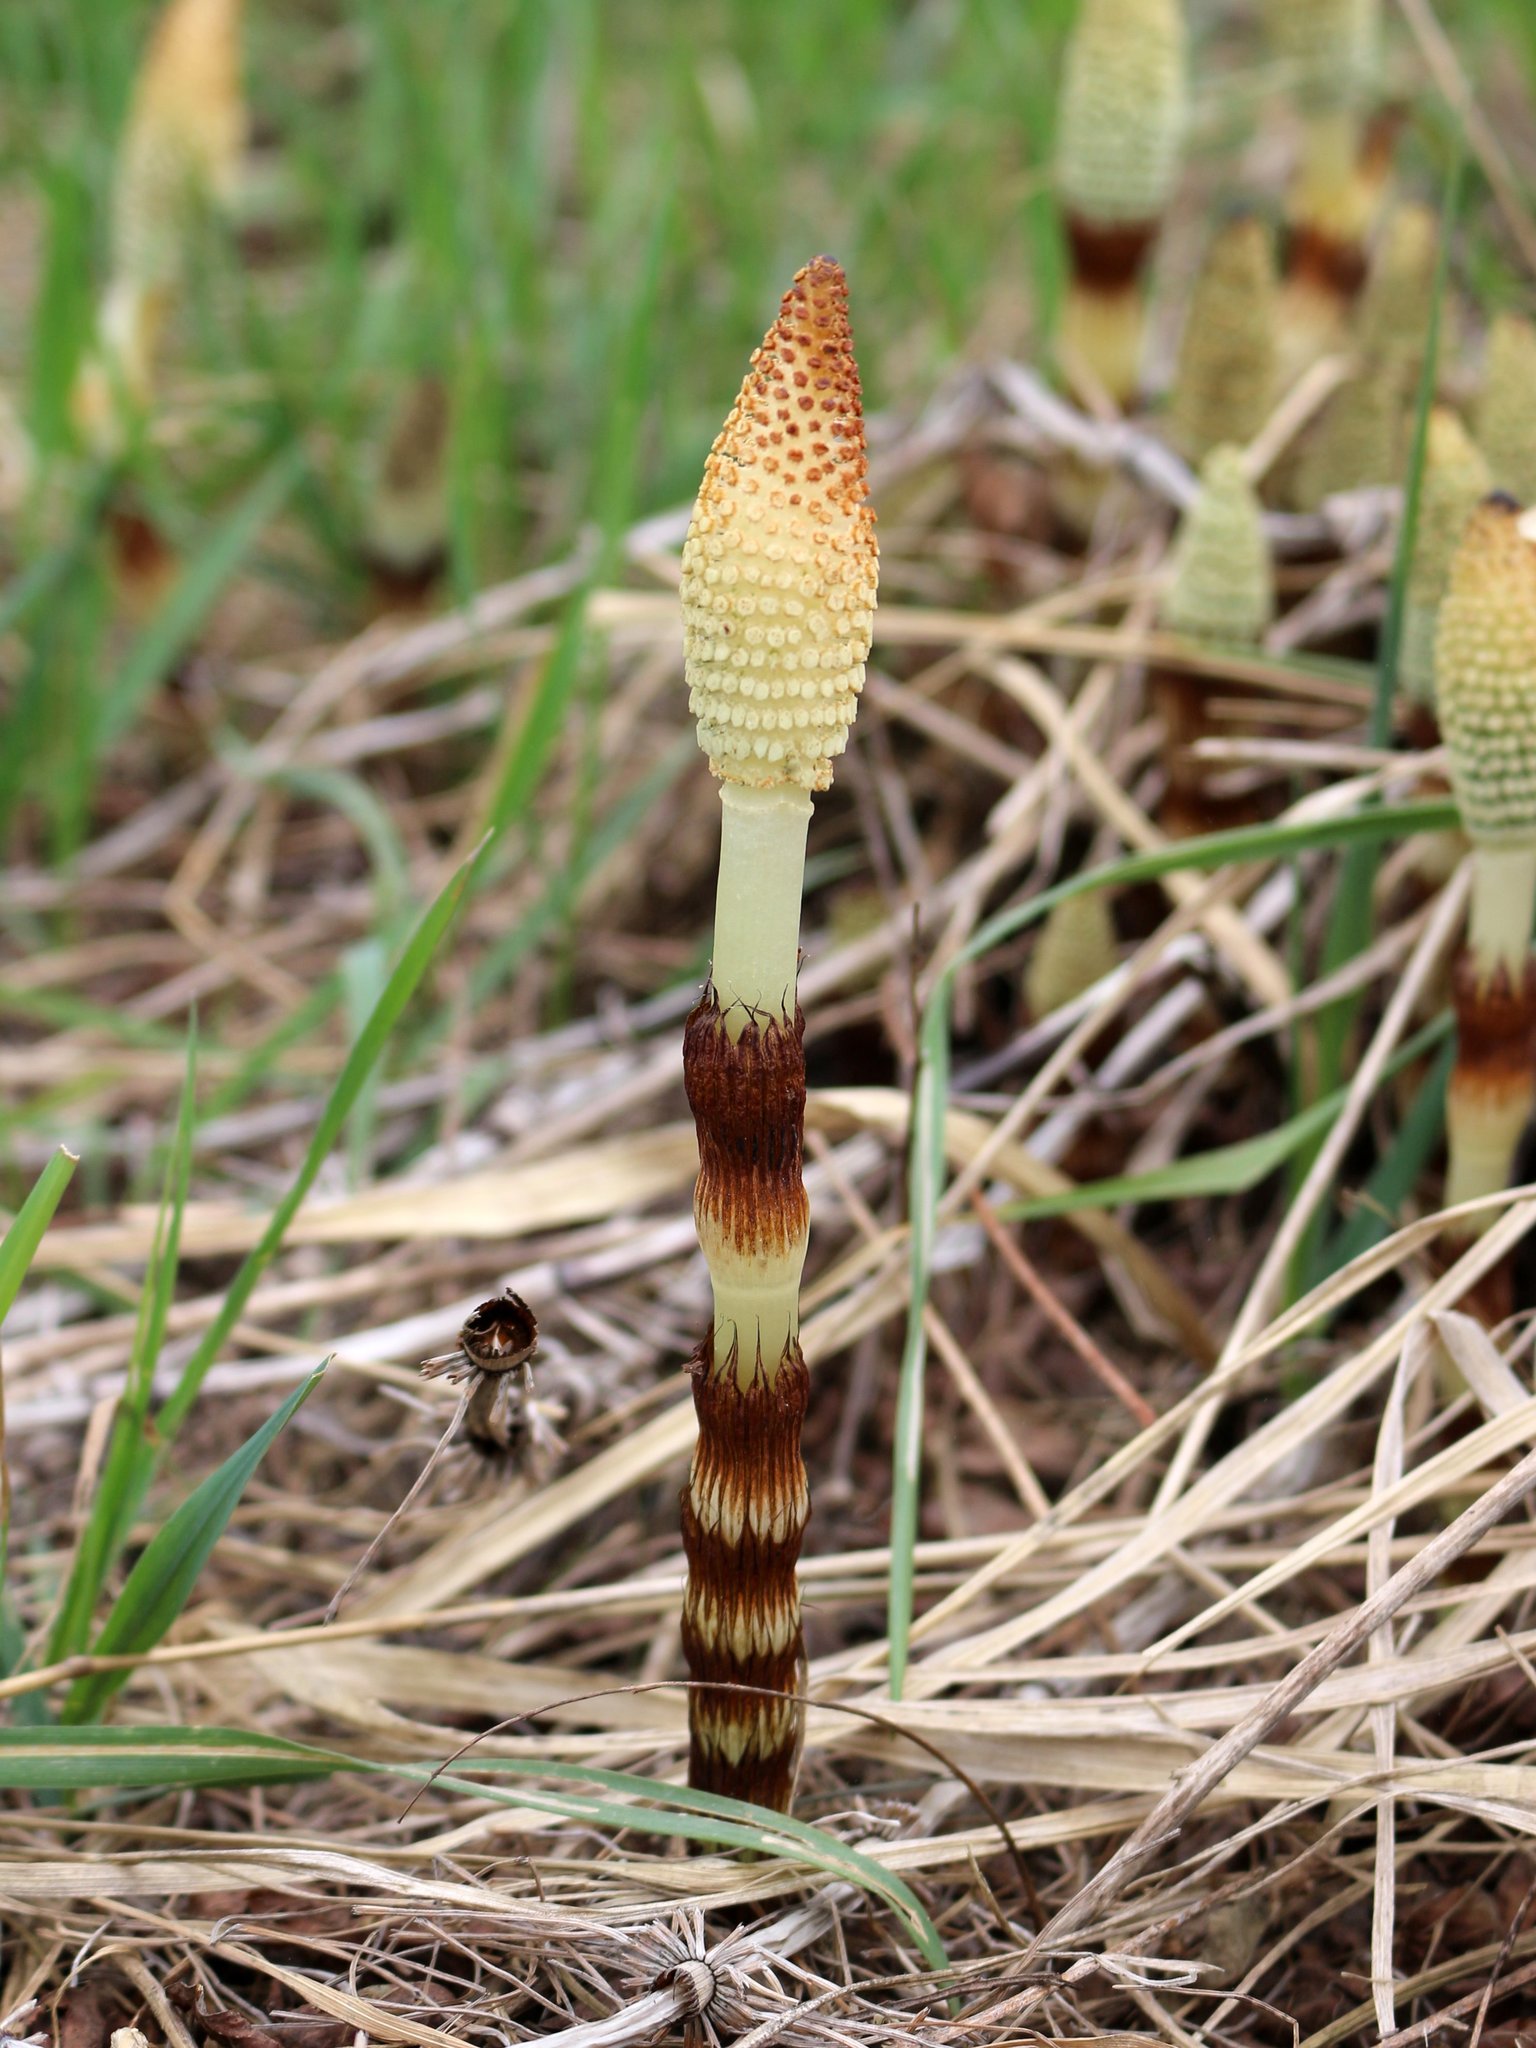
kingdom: Plantae
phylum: Tracheophyta
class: Polypodiopsida
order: Equisetales
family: Equisetaceae
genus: Equisetum
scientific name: Equisetum telmateia
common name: Great horsetail
